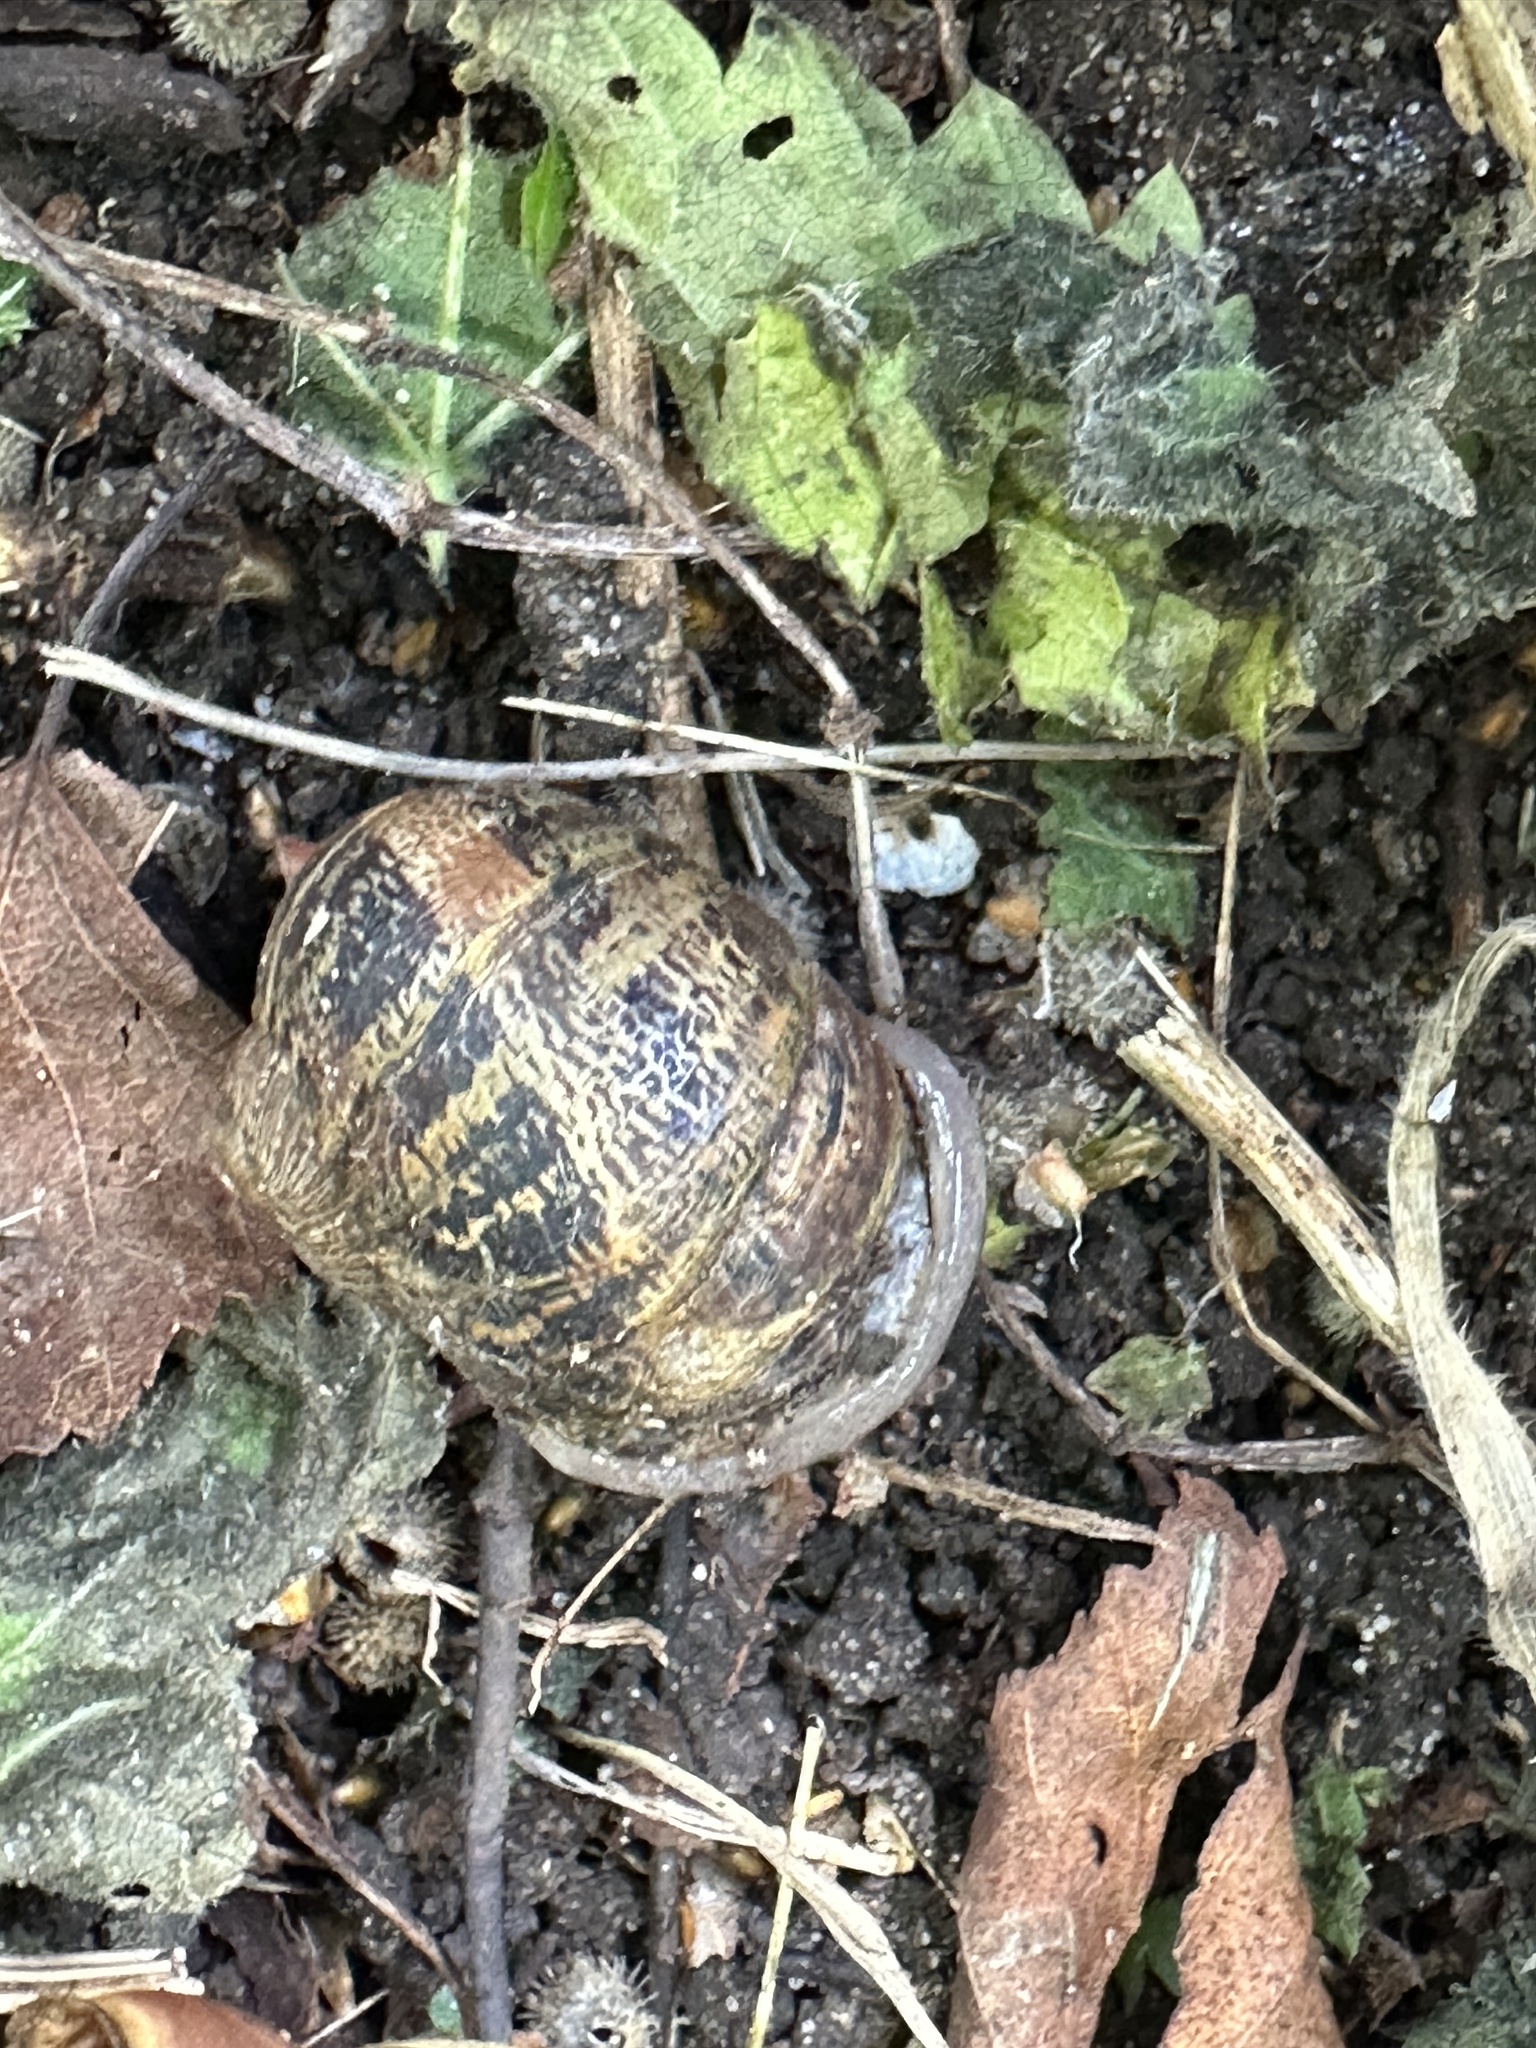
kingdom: Animalia
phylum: Mollusca
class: Gastropoda
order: Stylommatophora
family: Helicidae
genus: Cornu
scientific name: Cornu aspersum
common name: Brown garden snail
